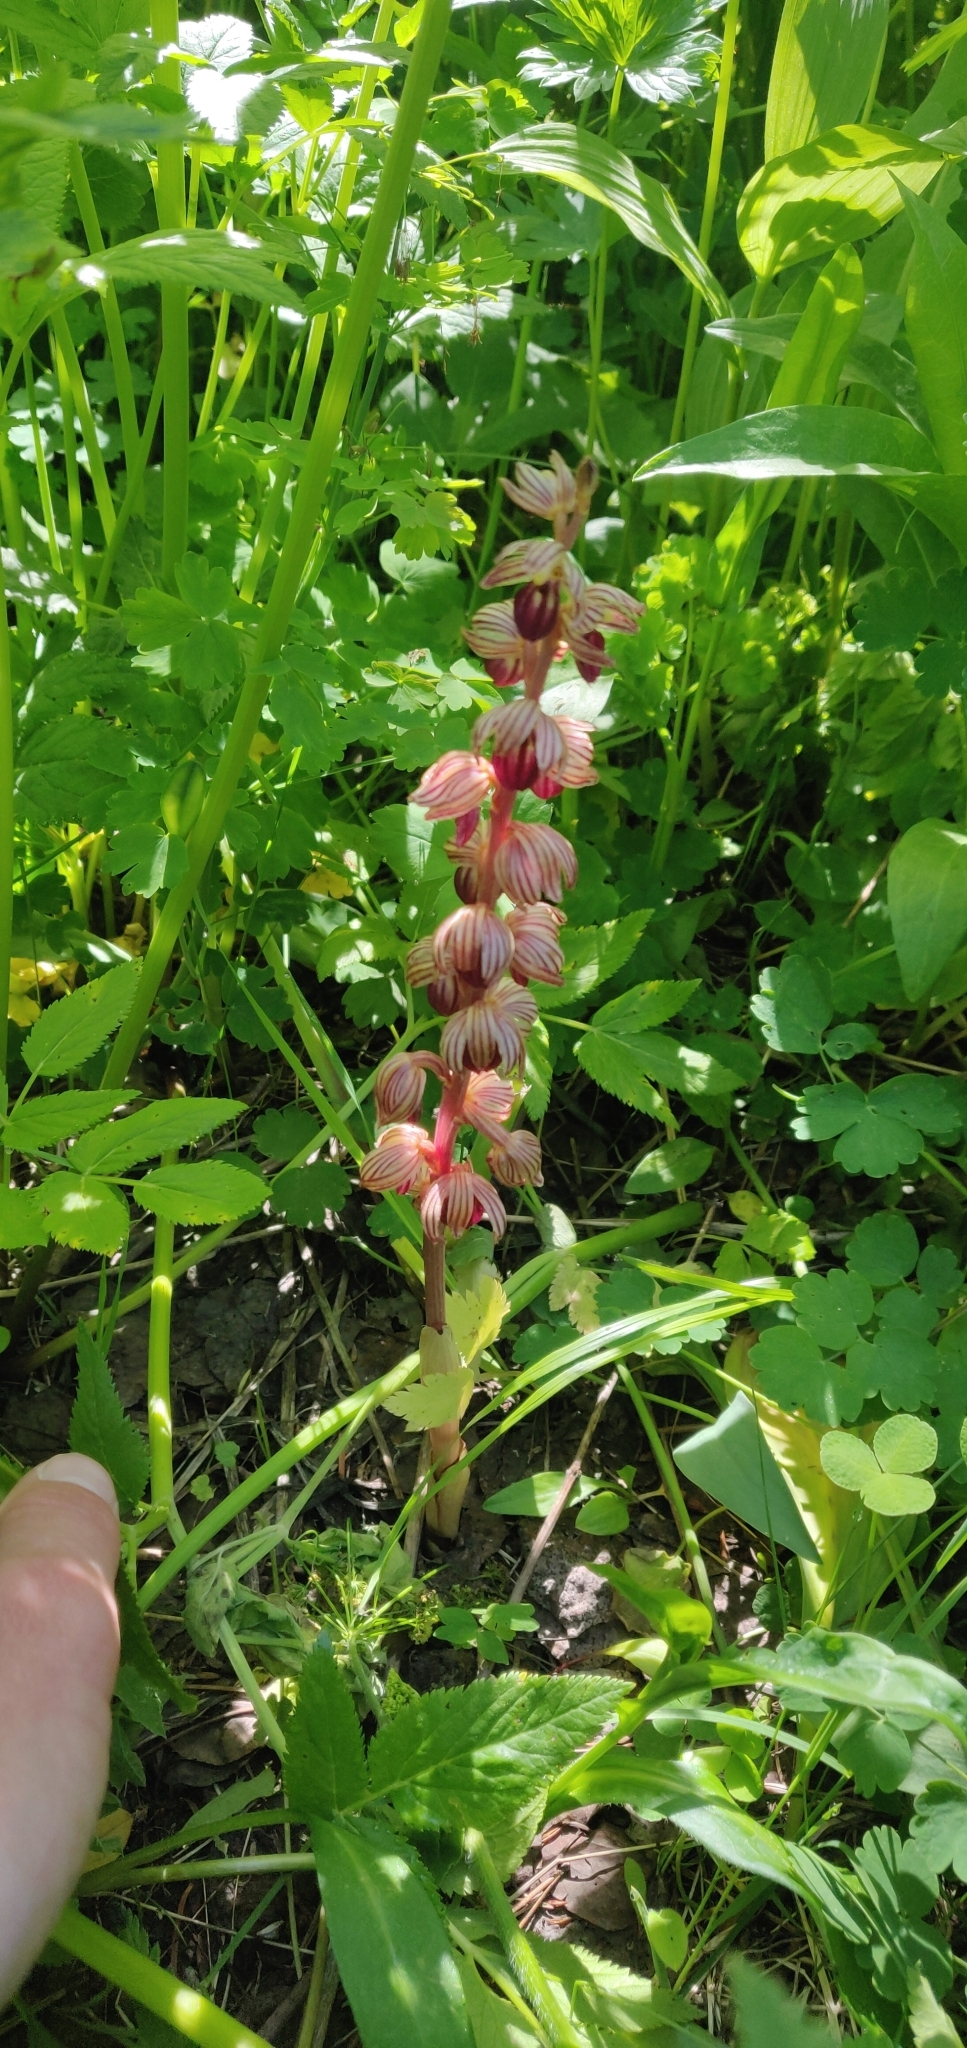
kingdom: Plantae
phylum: Tracheophyta
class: Liliopsida
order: Asparagales
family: Orchidaceae
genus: Corallorhiza
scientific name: Corallorhiza striata
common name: Hooded coralroot
